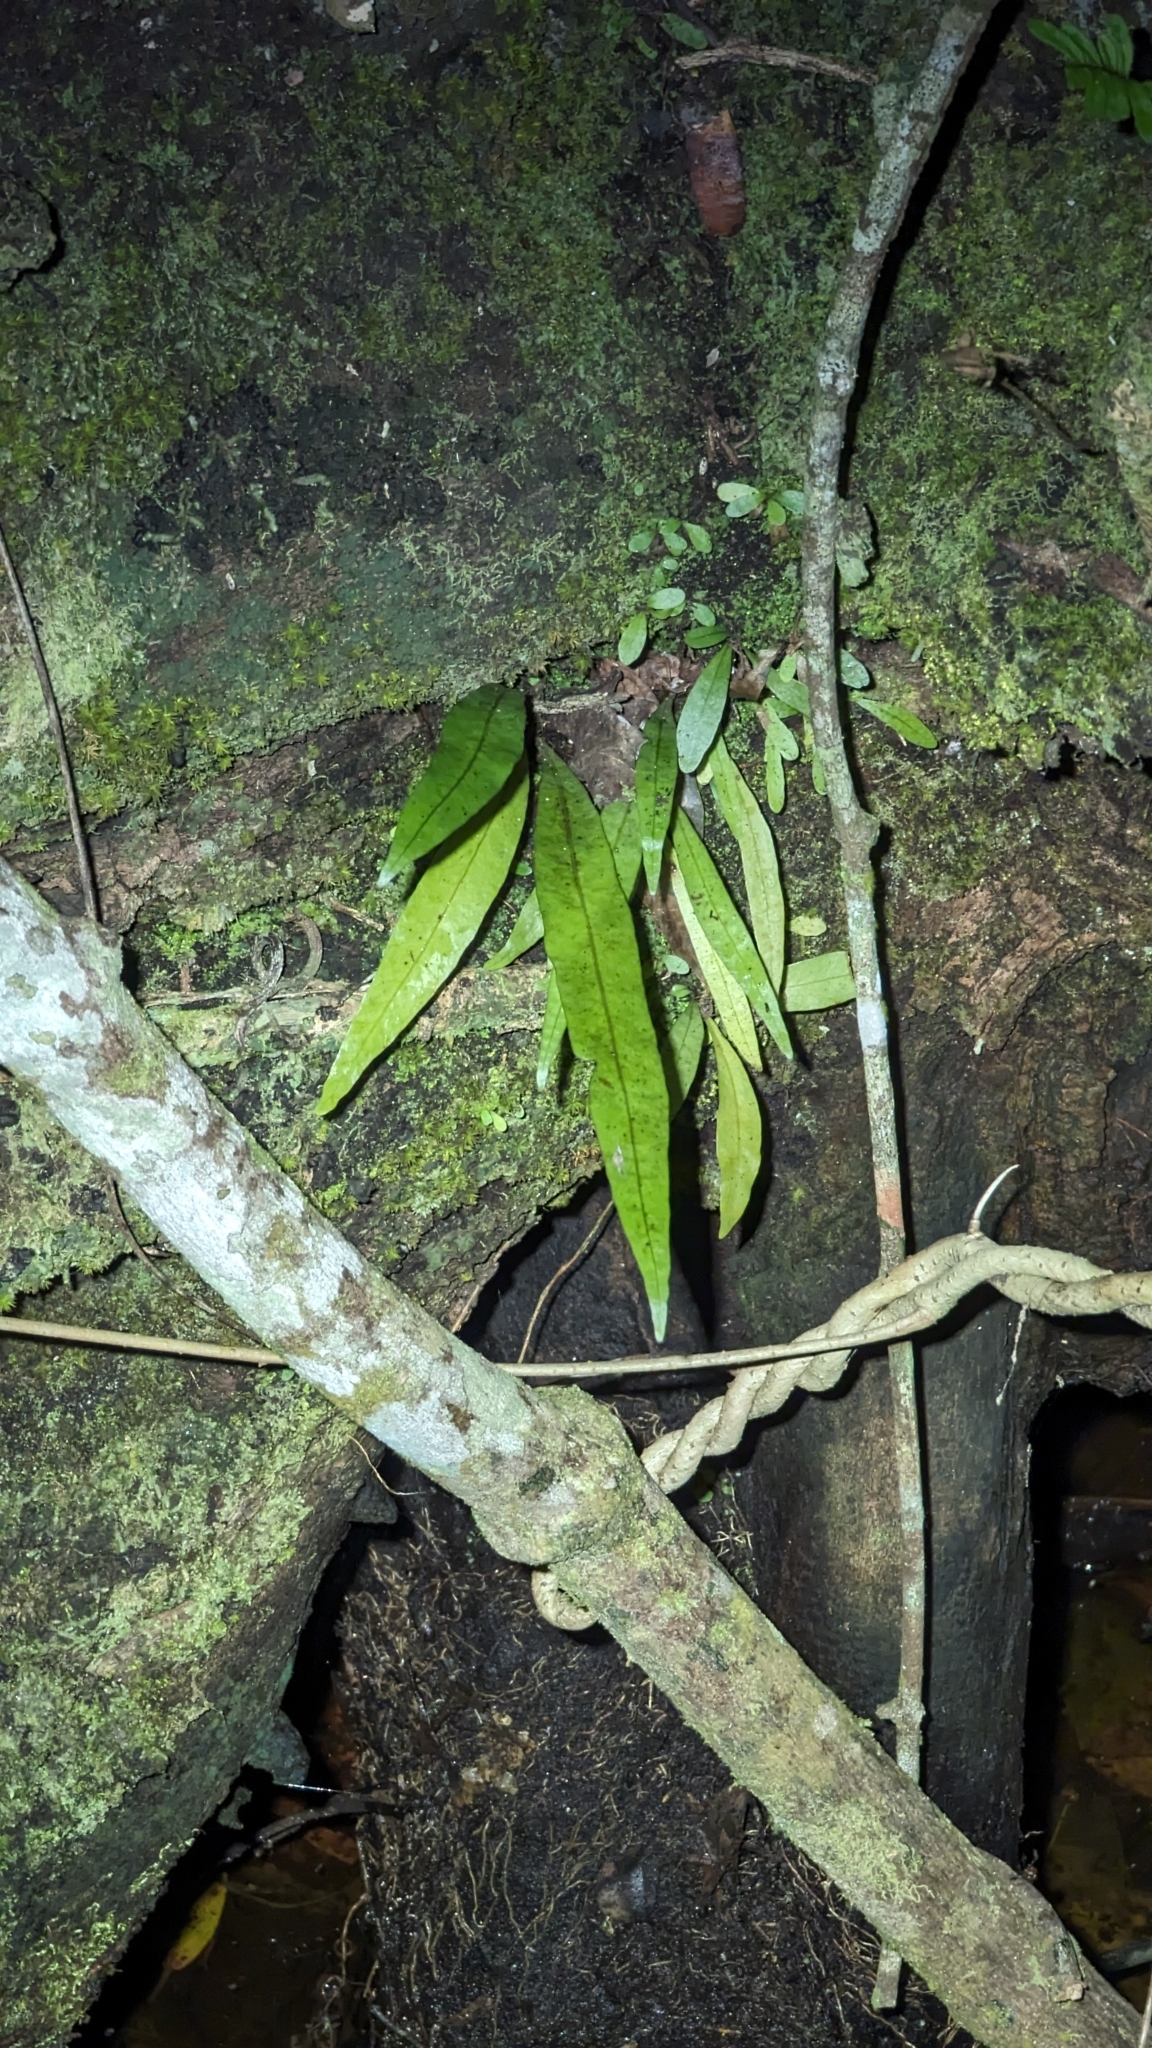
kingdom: Plantae
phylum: Tracheophyta
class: Polypodiopsida
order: Polypodiales
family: Polypodiaceae
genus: Campyloneurum
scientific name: Campyloneurum phyllitidis
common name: Cow-tongue fern
